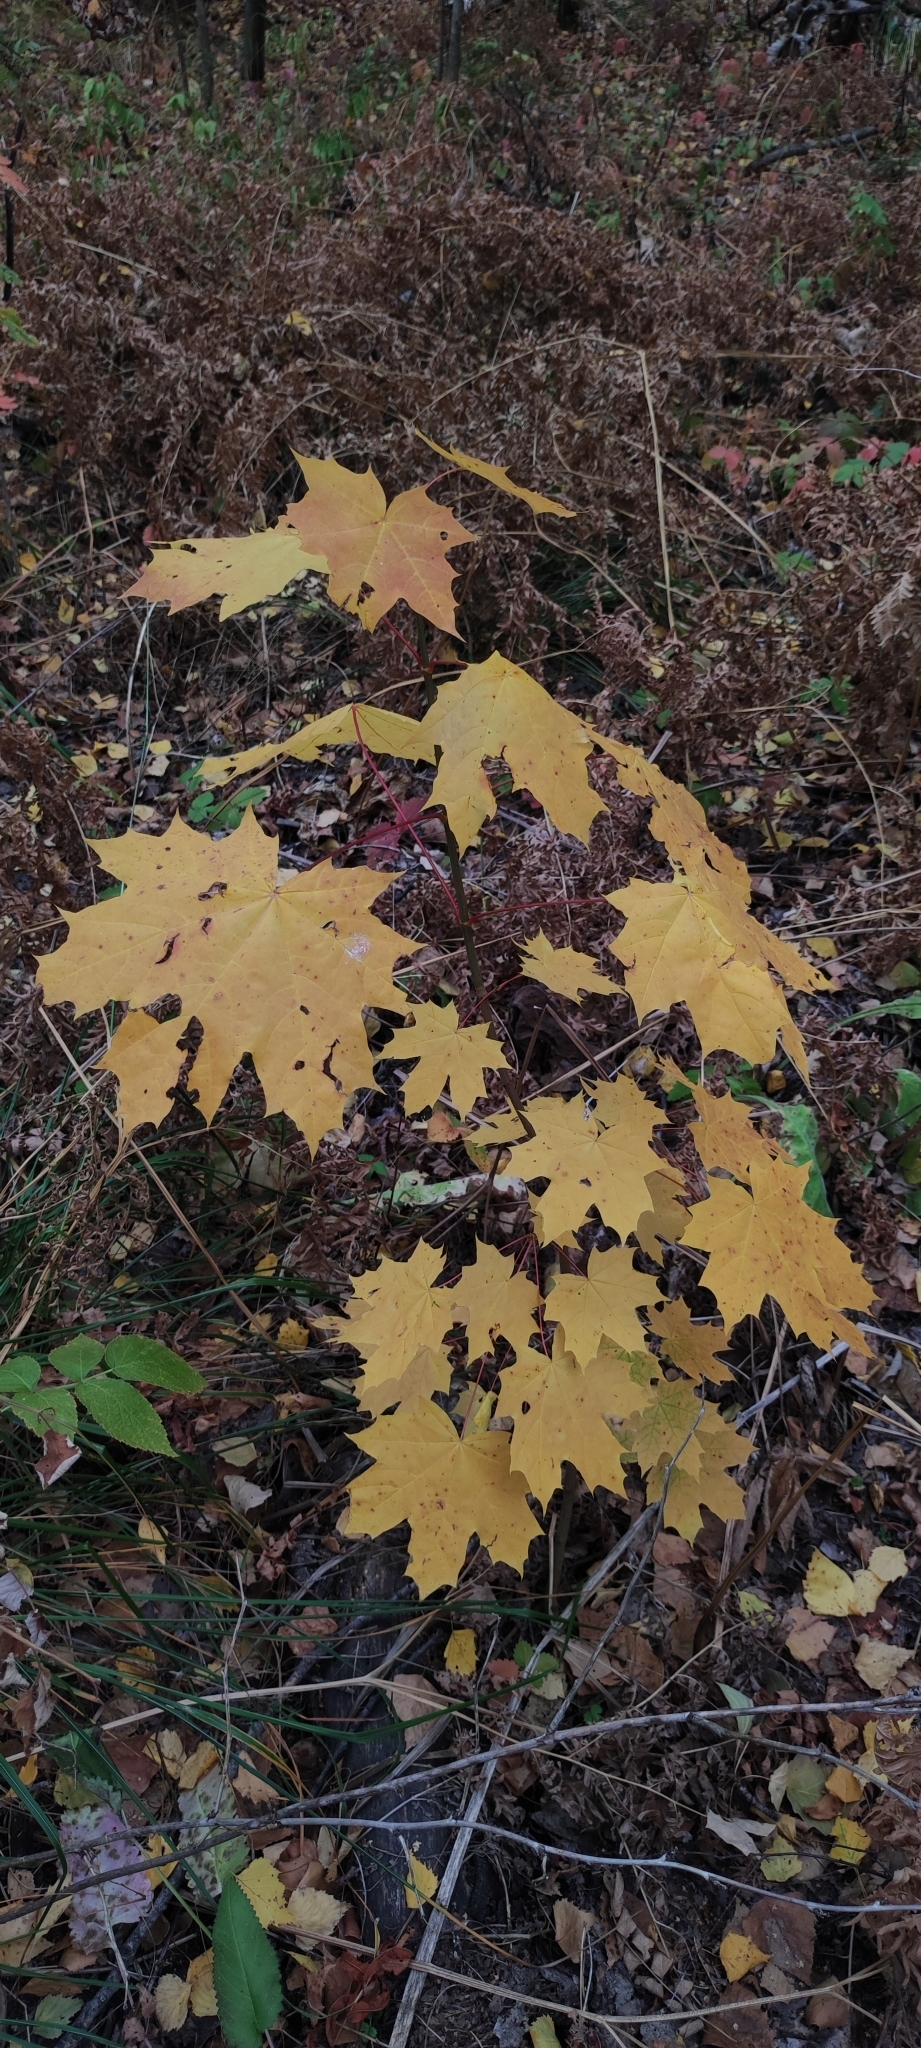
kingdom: Plantae
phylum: Tracheophyta
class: Magnoliopsida
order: Sapindales
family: Sapindaceae
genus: Acer
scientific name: Acer platanoides
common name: Norway maple
